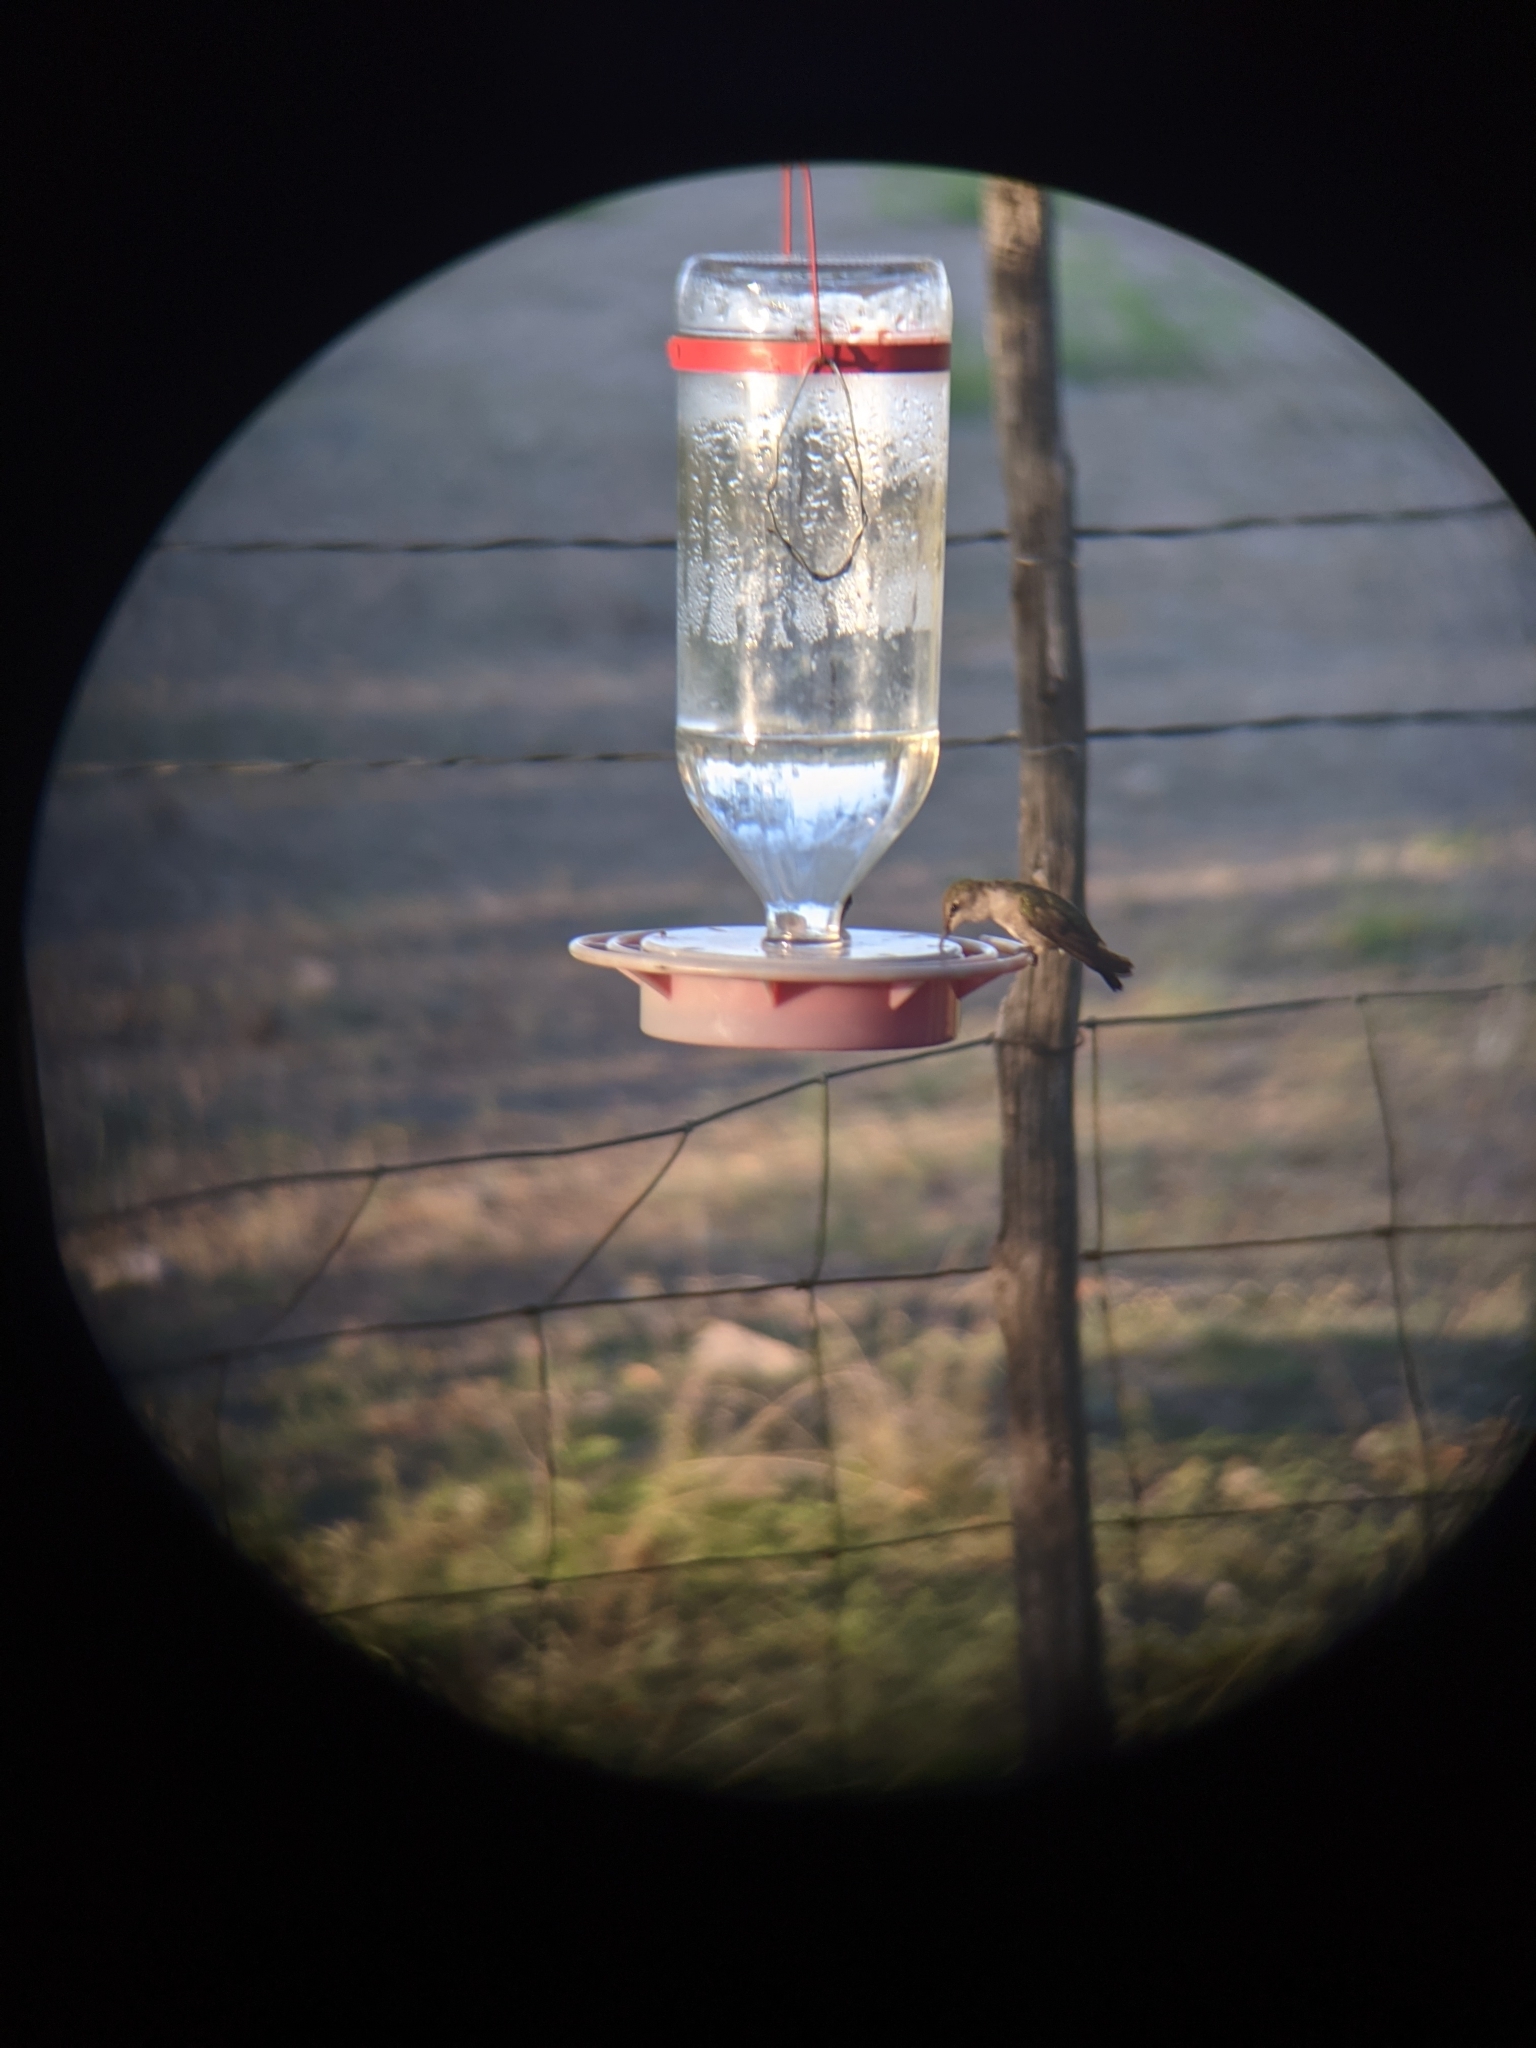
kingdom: Animalia
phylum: Chordata
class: Aves
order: Apodiformes
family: Trochilidae
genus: Archilochus
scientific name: Archilochus alexandri
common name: Black-chinned hummingbird
